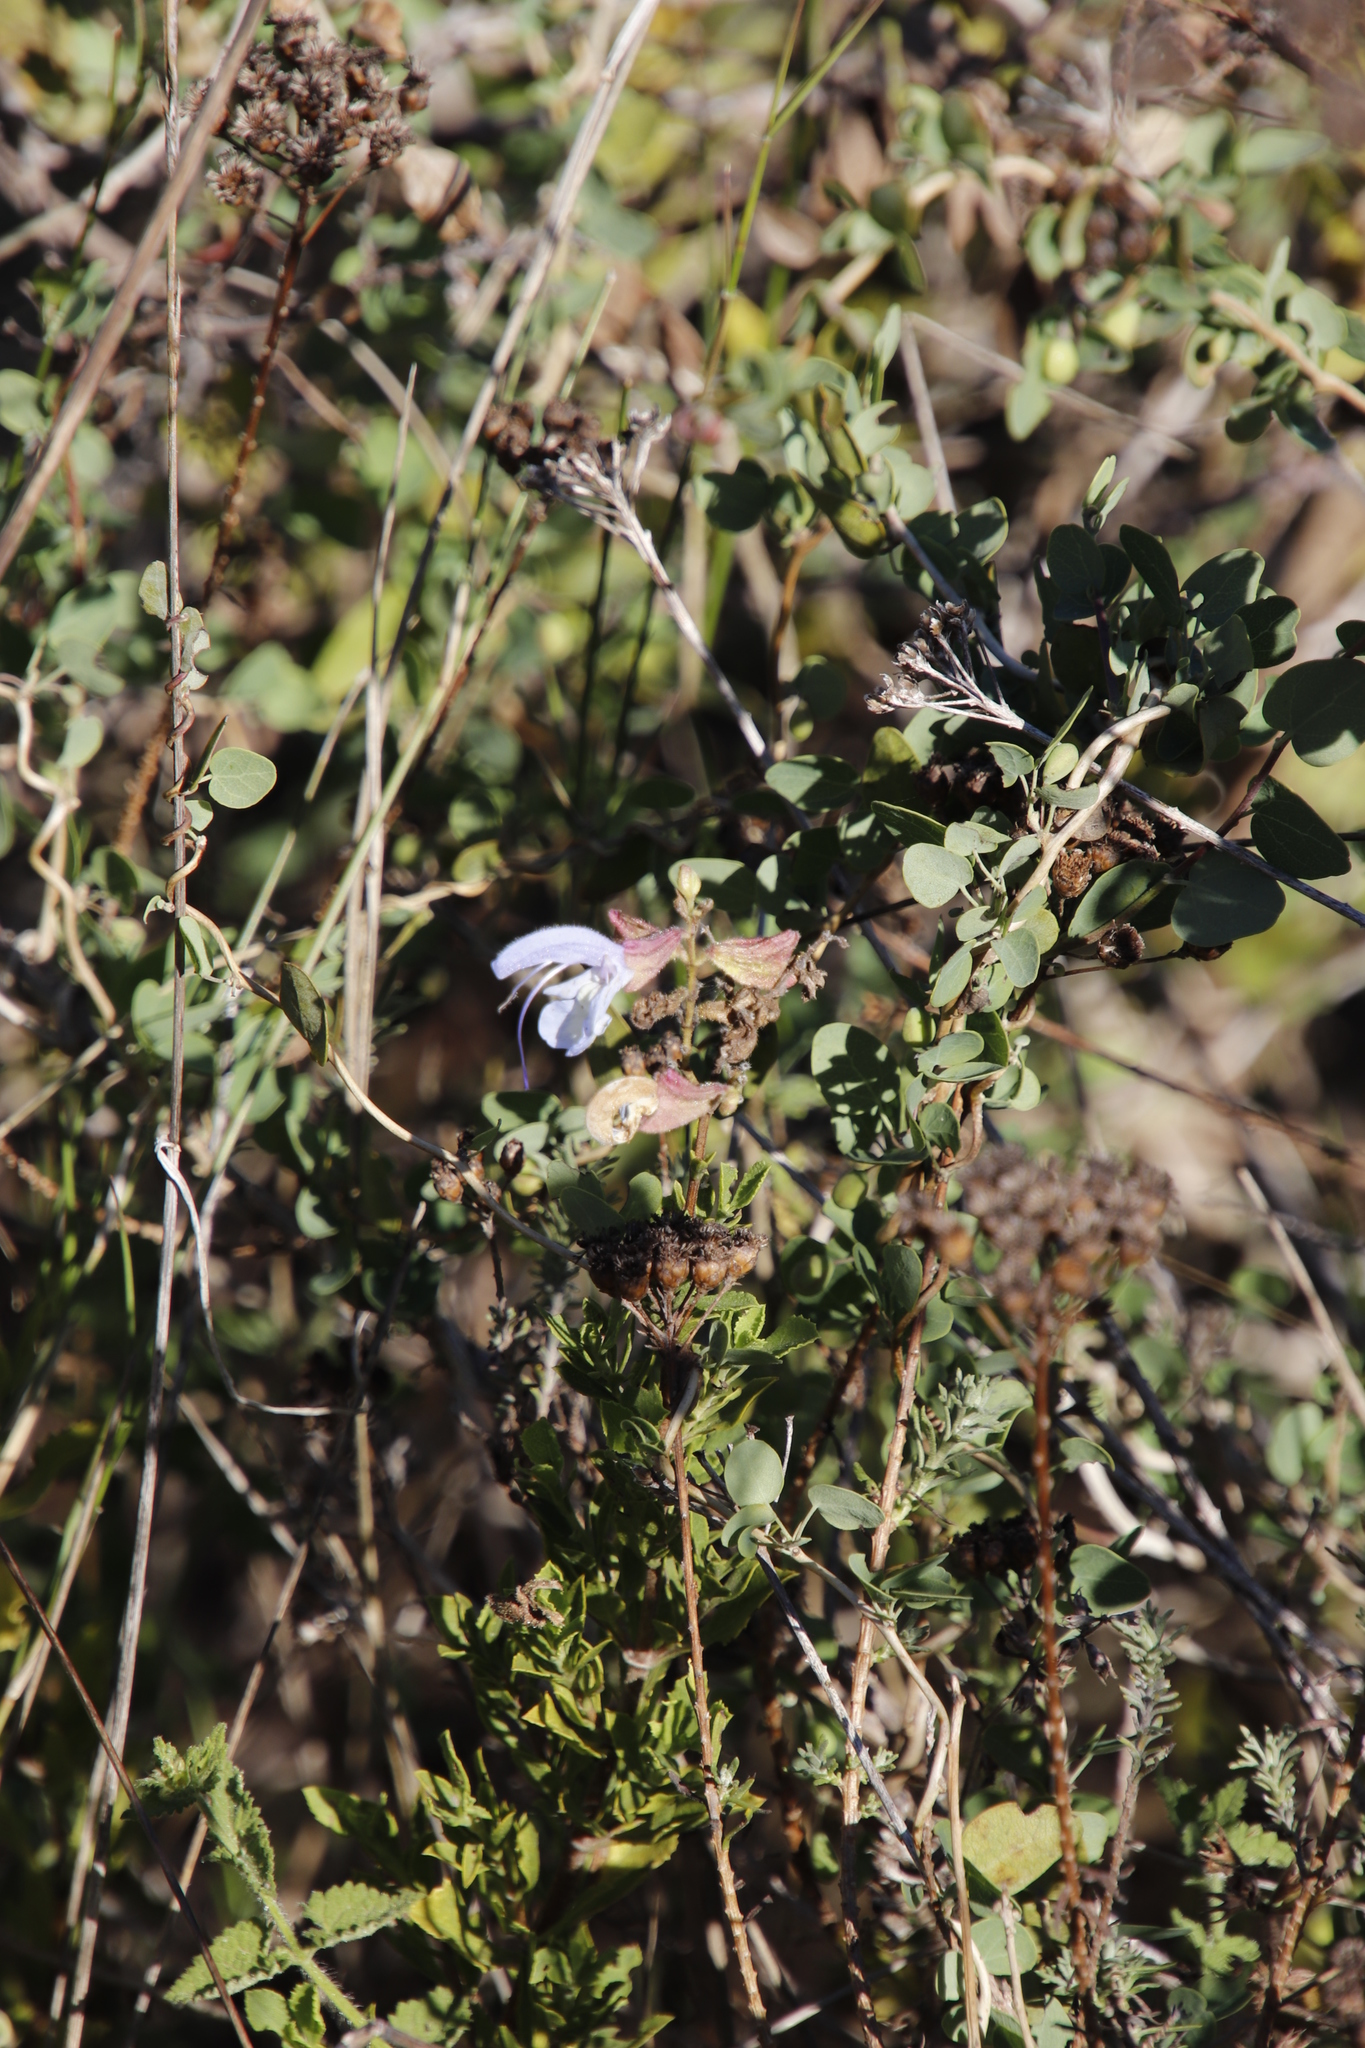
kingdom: Plantae
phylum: Tracheophyta
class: Magnoliopsida
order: Lamiales
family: Lamiaceae
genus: Salvia
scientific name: Salvia chamelaeagnea
